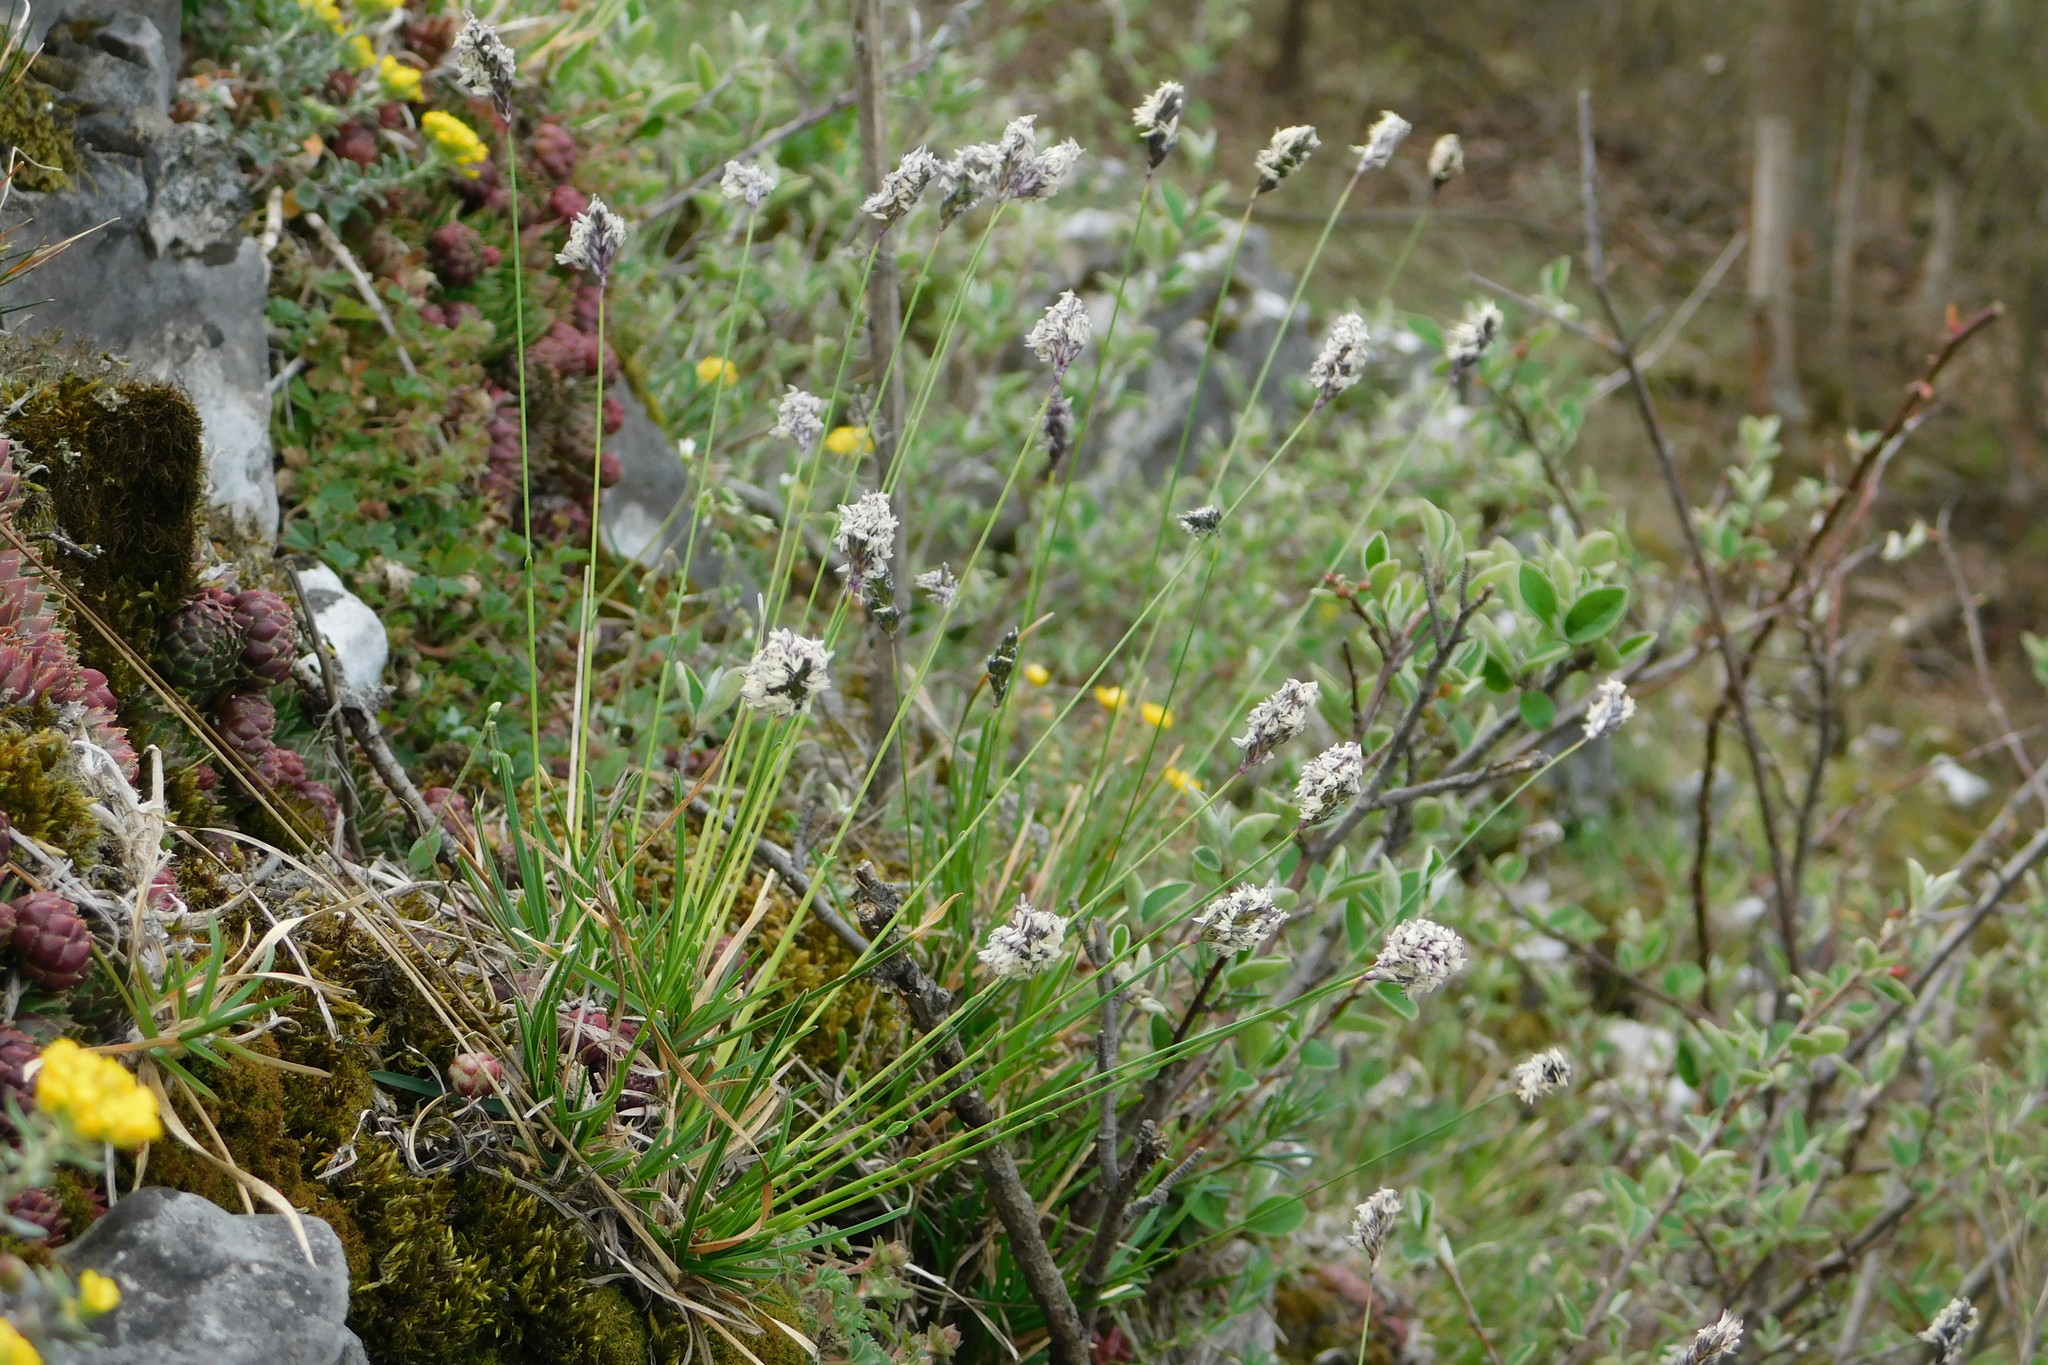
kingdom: Plantae
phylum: Tracheophyta
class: Liliopsida
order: Poales
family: Poaceae
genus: Sesleria
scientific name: Sesleria caerulea
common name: Blue moor-grass
